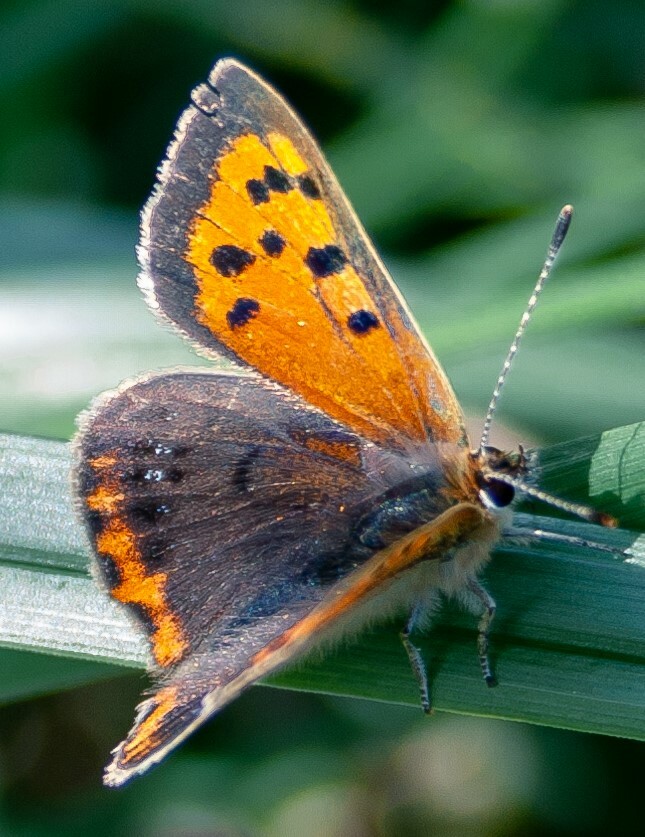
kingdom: Animalia
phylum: Arthropoda
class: Insecta
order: Lepidoptera
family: Lycaenidae
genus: Lycaena
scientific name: Lycaena phlaeas
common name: Small copper
